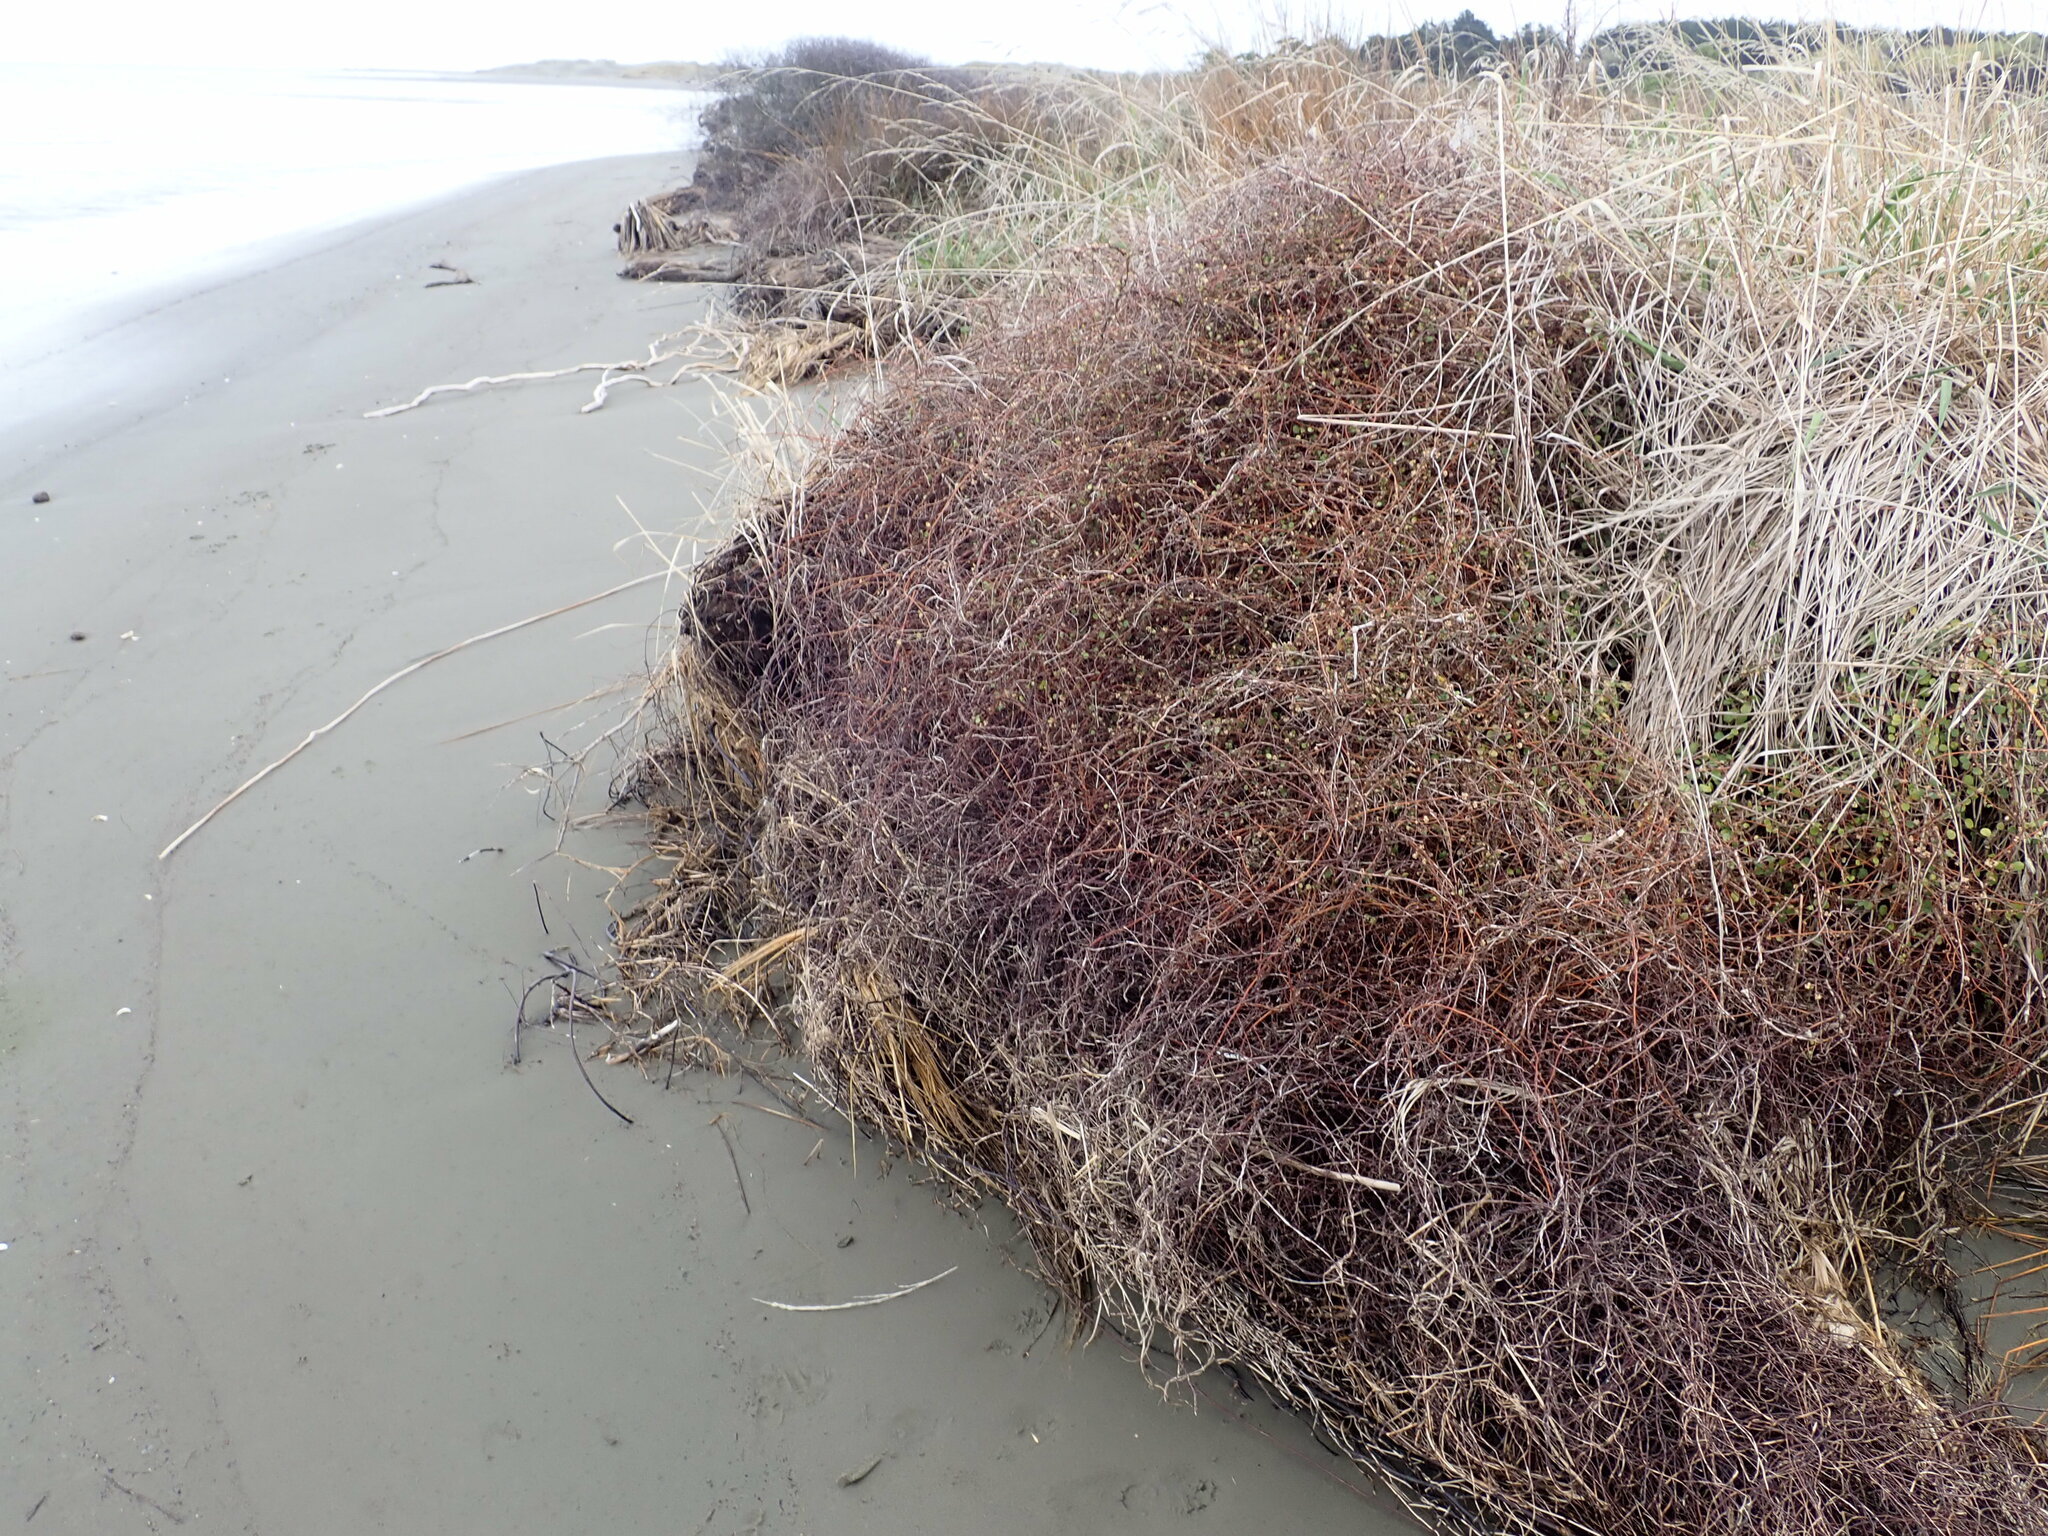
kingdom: Plantae
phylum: Tracheophyta
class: Magnoliopsida
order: Caryophyllales
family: Polygonaceae
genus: Muehlenbeckia
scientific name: Muehlenbeckia complexa
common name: Wireplant
